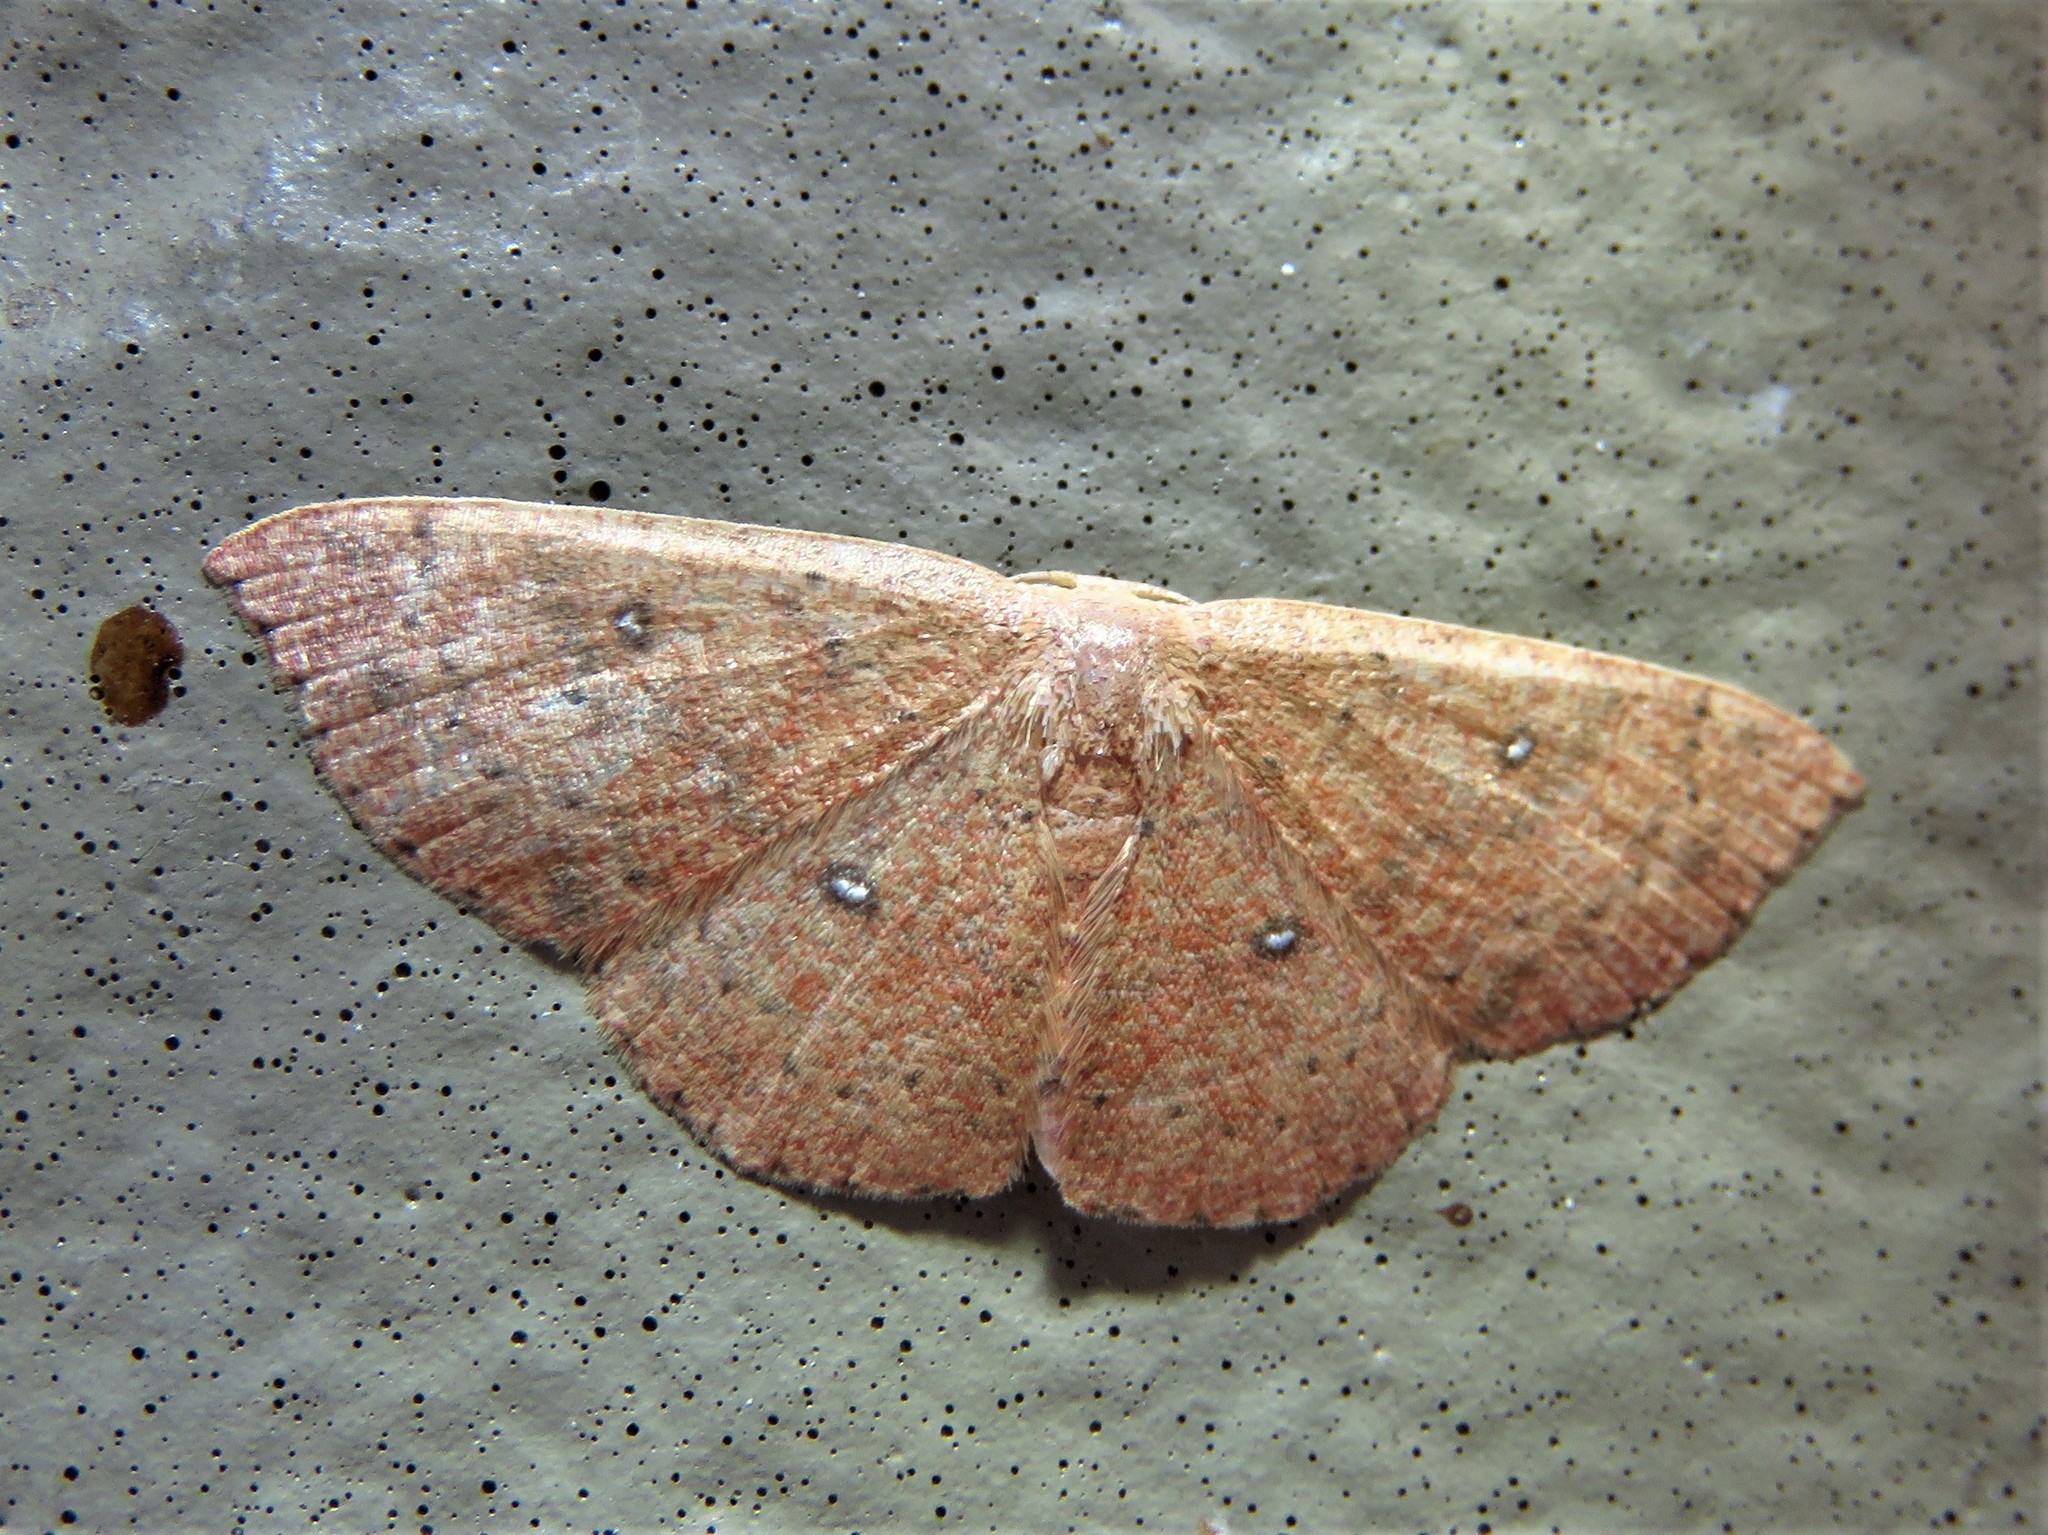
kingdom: Animalia
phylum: Arthropoda
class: Insecta
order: Lepidoptera
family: Geometridae
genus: Cyclophora
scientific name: Cyclophora packardi
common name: Packard's wave
